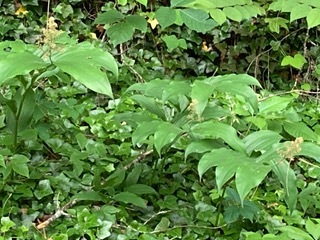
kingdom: Plantae
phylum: Tracheophyta
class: Liliopsida
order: Asparagales
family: Asparagaceae
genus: Maianthemum
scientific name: Maianthemum racemosum
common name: False spikenard
